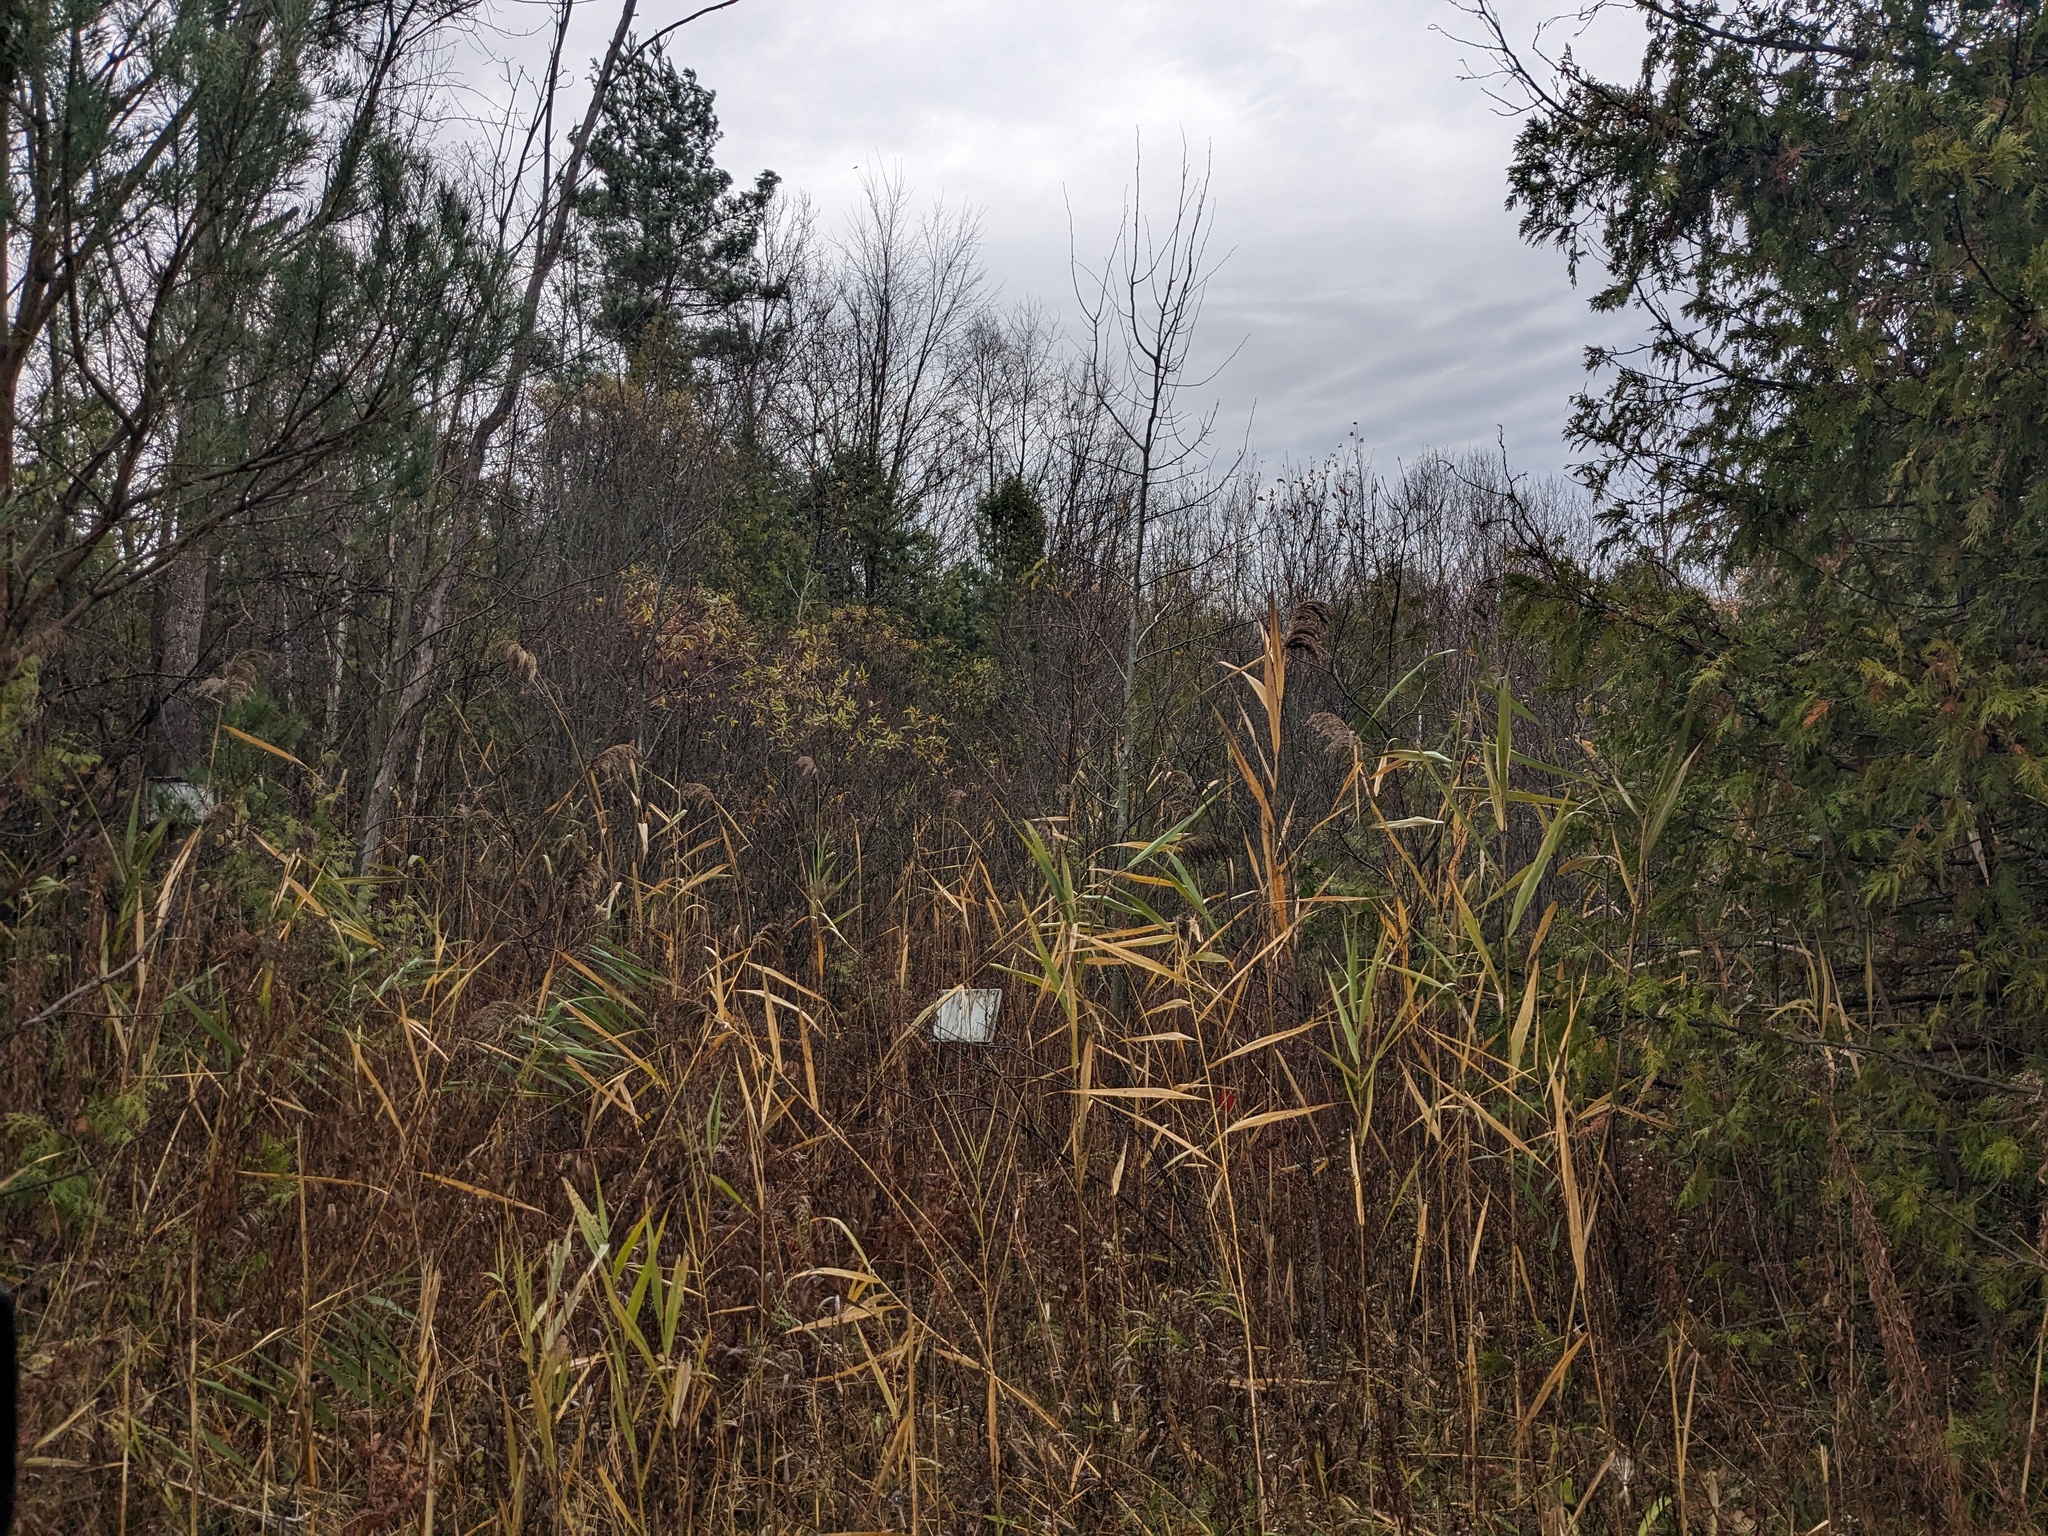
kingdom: Plantae
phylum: Tracheophyta
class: Liliopsida
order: Poales
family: Poaceae
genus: Phragmites
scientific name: Phragmites australis
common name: Common reed
